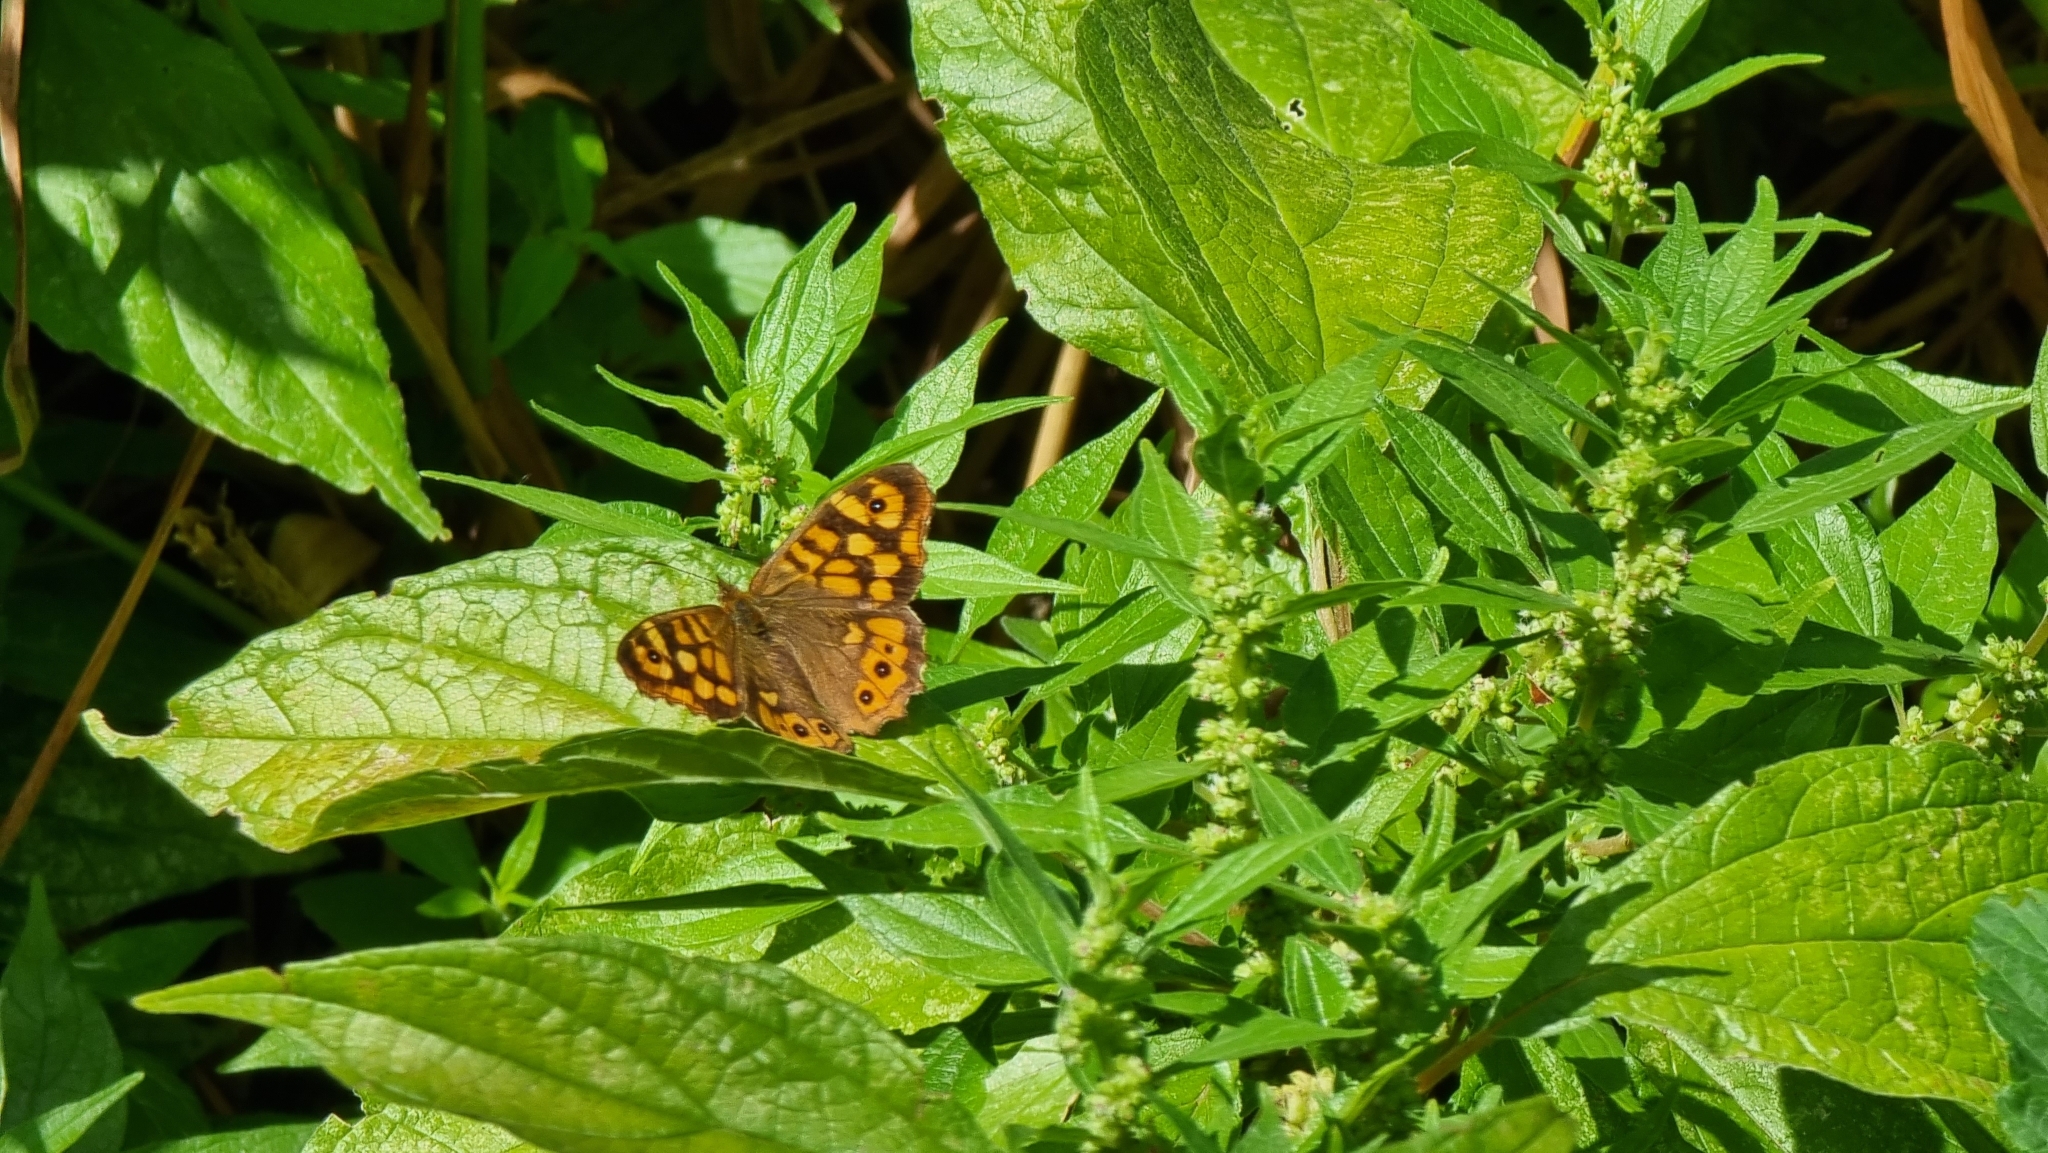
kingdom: Animalia
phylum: Arthropoda
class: Insecta
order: Lepidoptera
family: Nymphalidae
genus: Pararge
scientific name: Pararge aegeria
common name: Speckled wood
